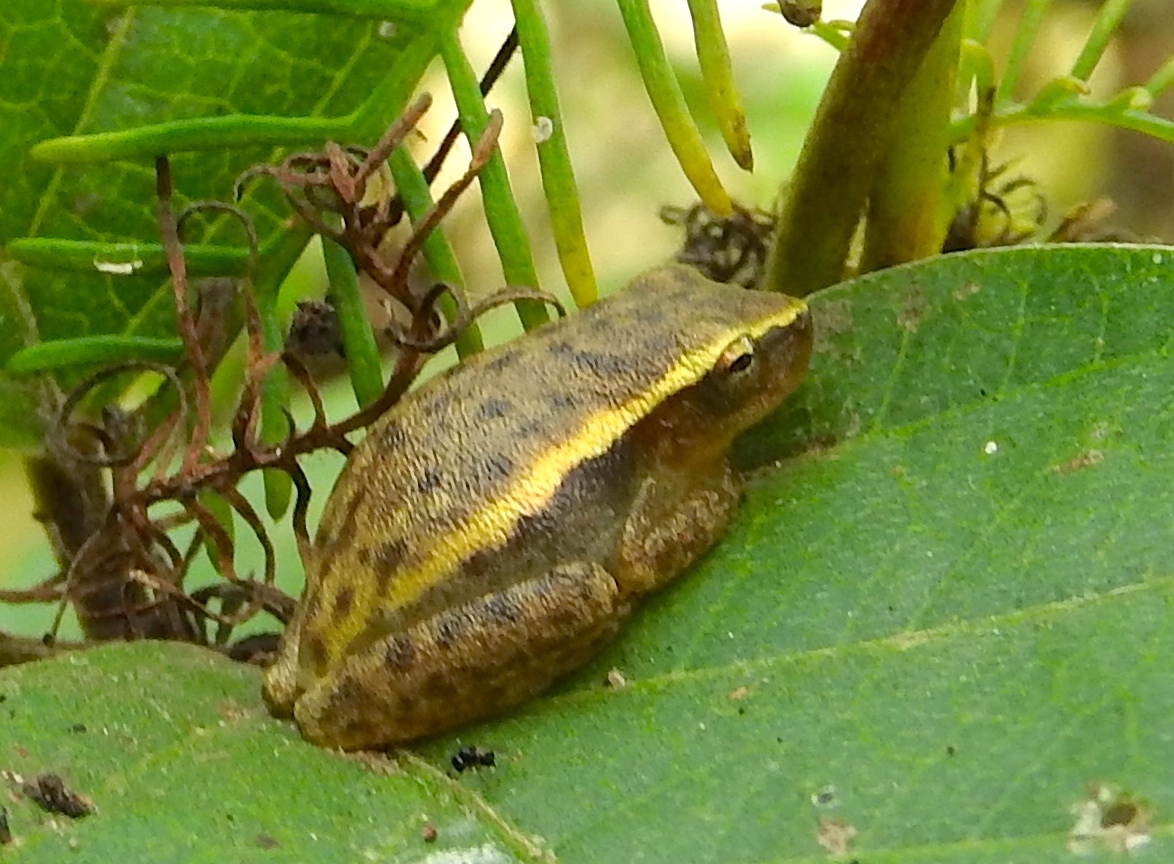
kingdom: Animalia
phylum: Chordata
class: Amphibia
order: Anura
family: Hylidae
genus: Tlalocohyla
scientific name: Tlalocohyla smithii
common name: Dwarf mexican treefrog
